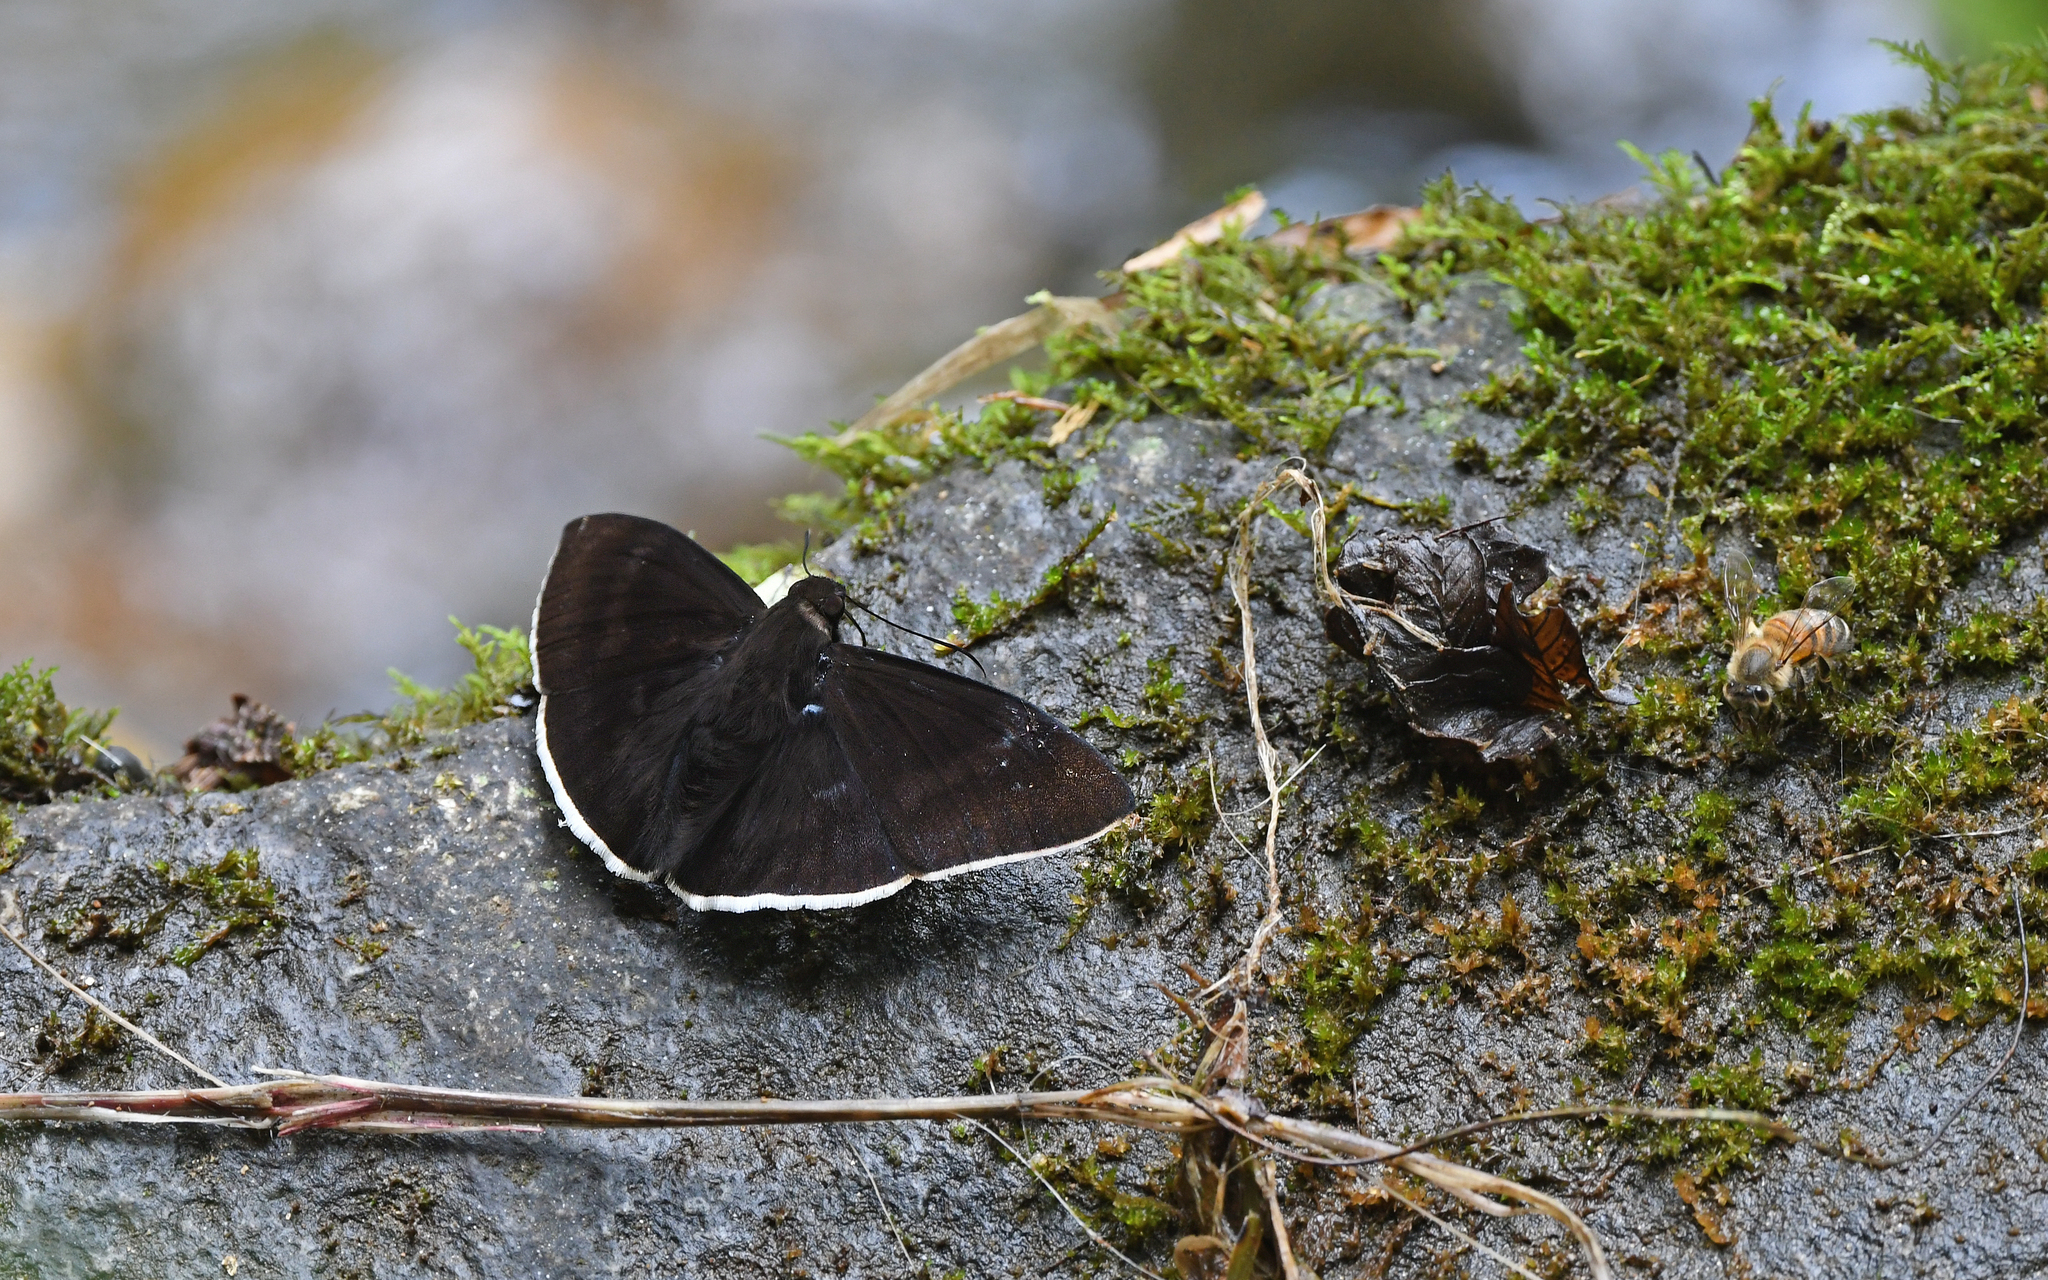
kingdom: Animalia
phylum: Arthropoda
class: Insecta
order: Lepidoptera
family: Hesperiidae
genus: Aethilla
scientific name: Aethilla eleusinia
